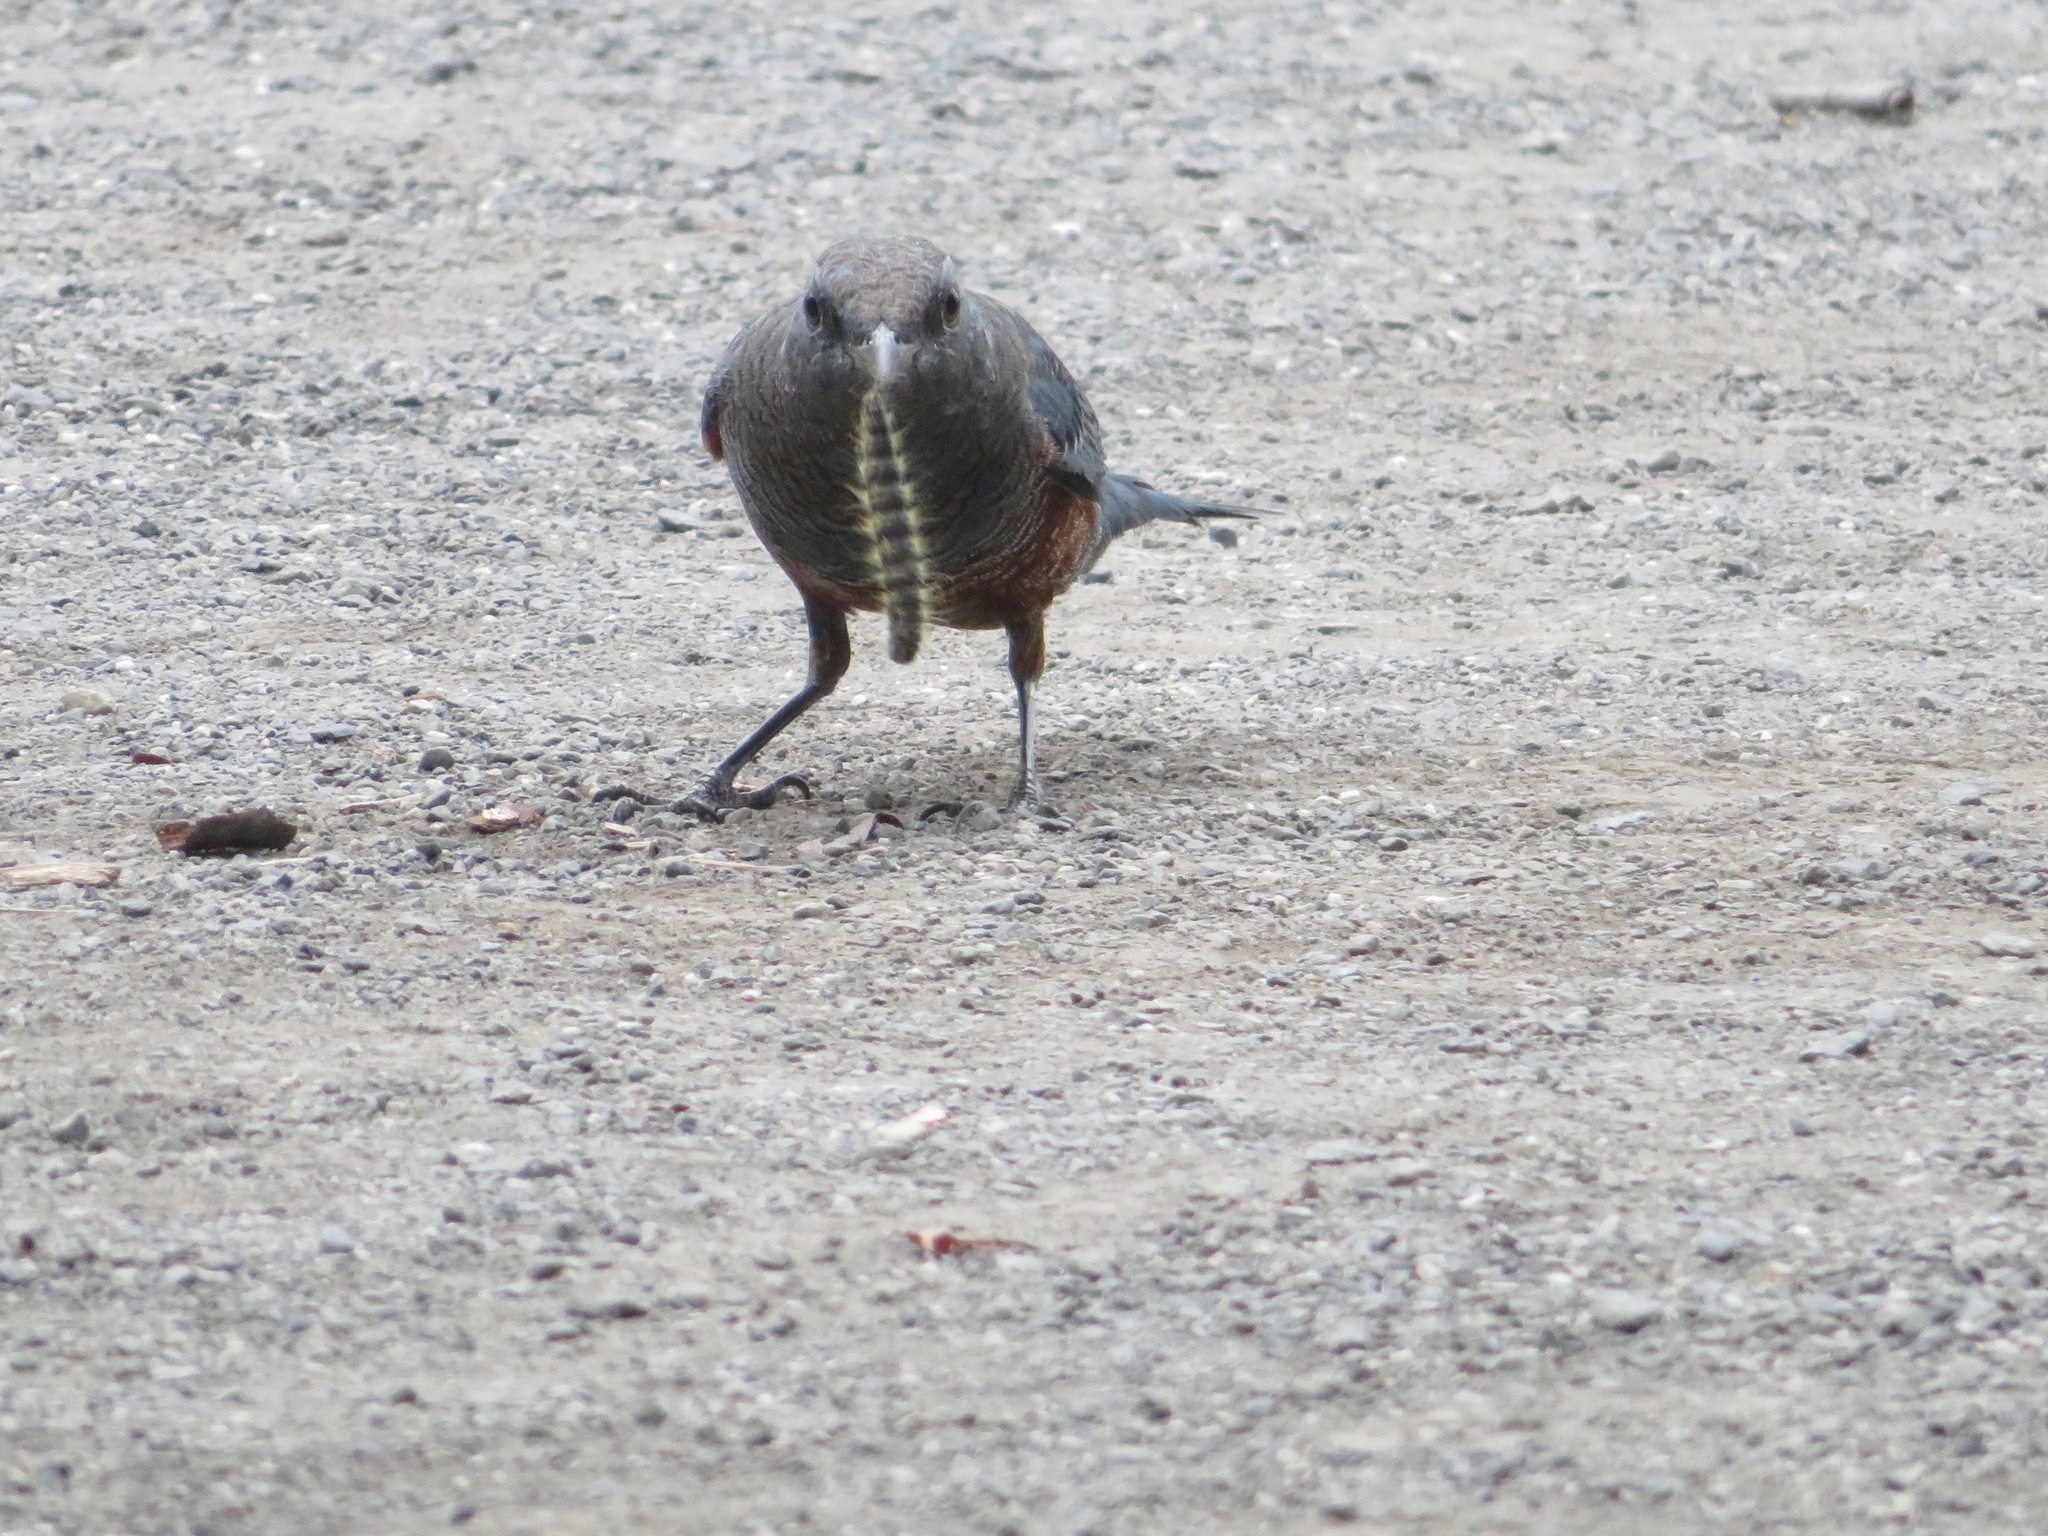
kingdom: Animalia
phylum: Chordata
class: Aves
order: Passeriformes
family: Muscicapidae
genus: Monticola
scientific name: Monticola solitarius
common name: Blue rock thrush
